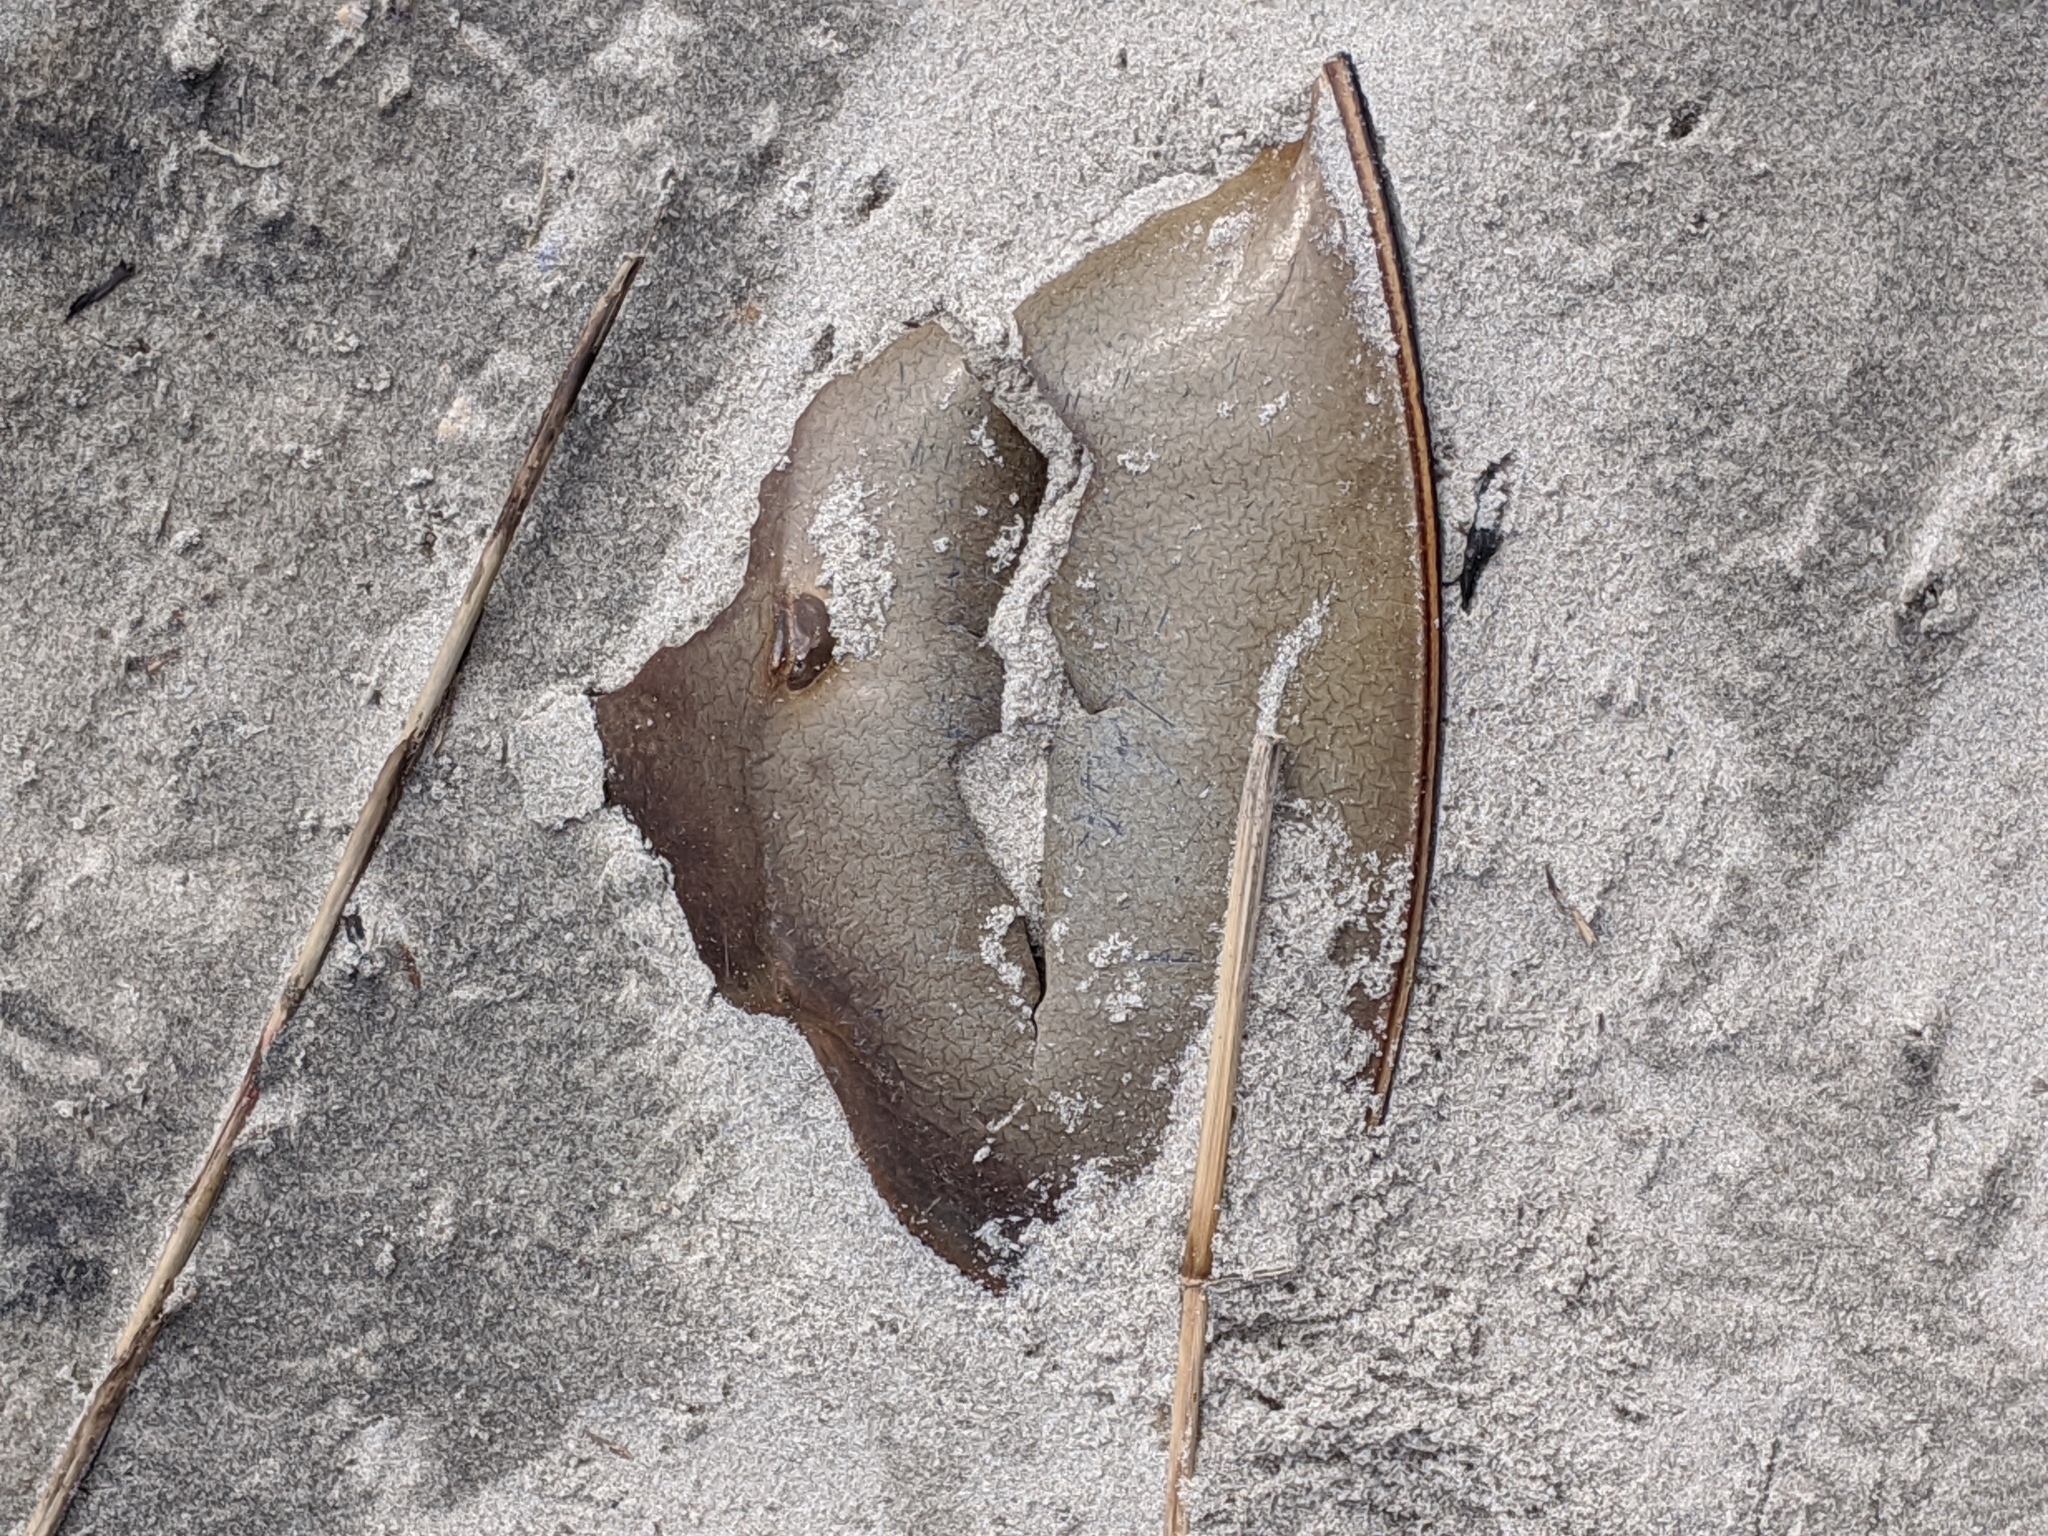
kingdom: Animalia
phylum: Arthropoda
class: Merostomata
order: Xiphosurida
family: Limulidae
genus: Limulus
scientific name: Limulus polyphemus
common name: Horseshoe crab
